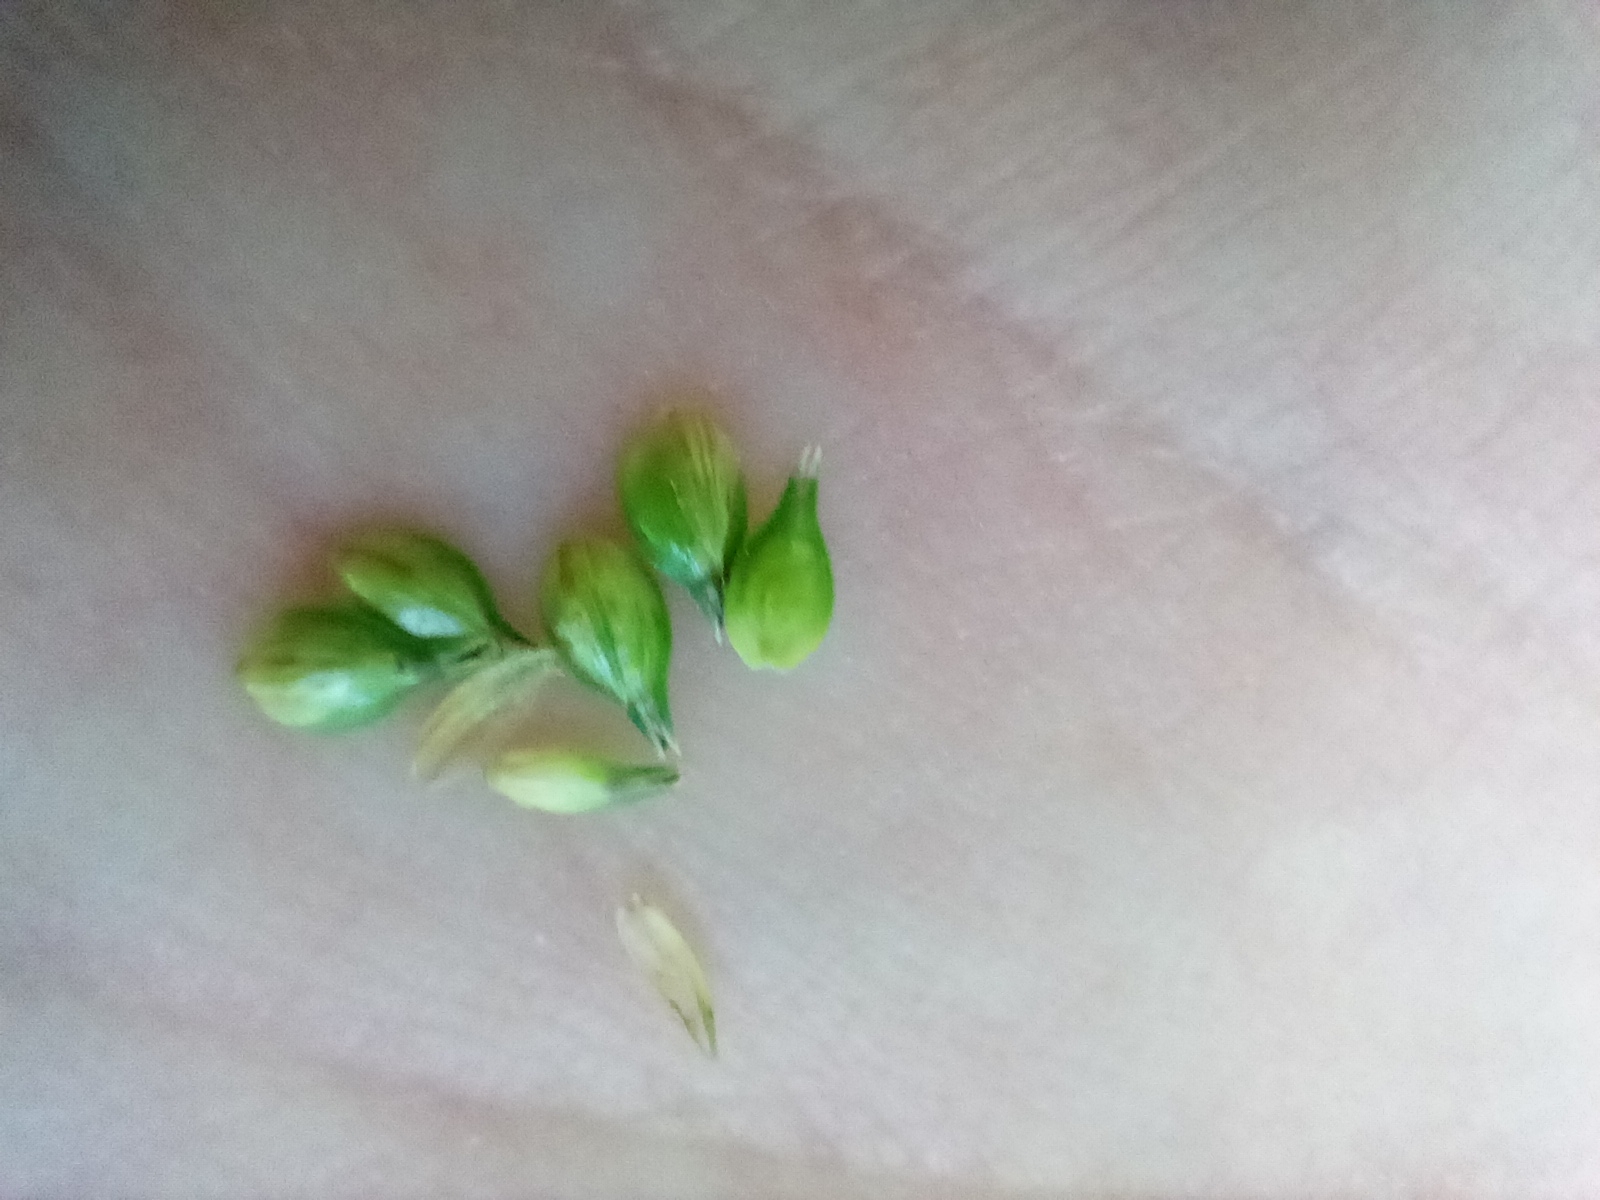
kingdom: Plantae
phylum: Tracheophyta
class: Liliopsida
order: Poales
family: Cyperaceae
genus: Carex
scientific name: Carex muricata
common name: Rough sedge
